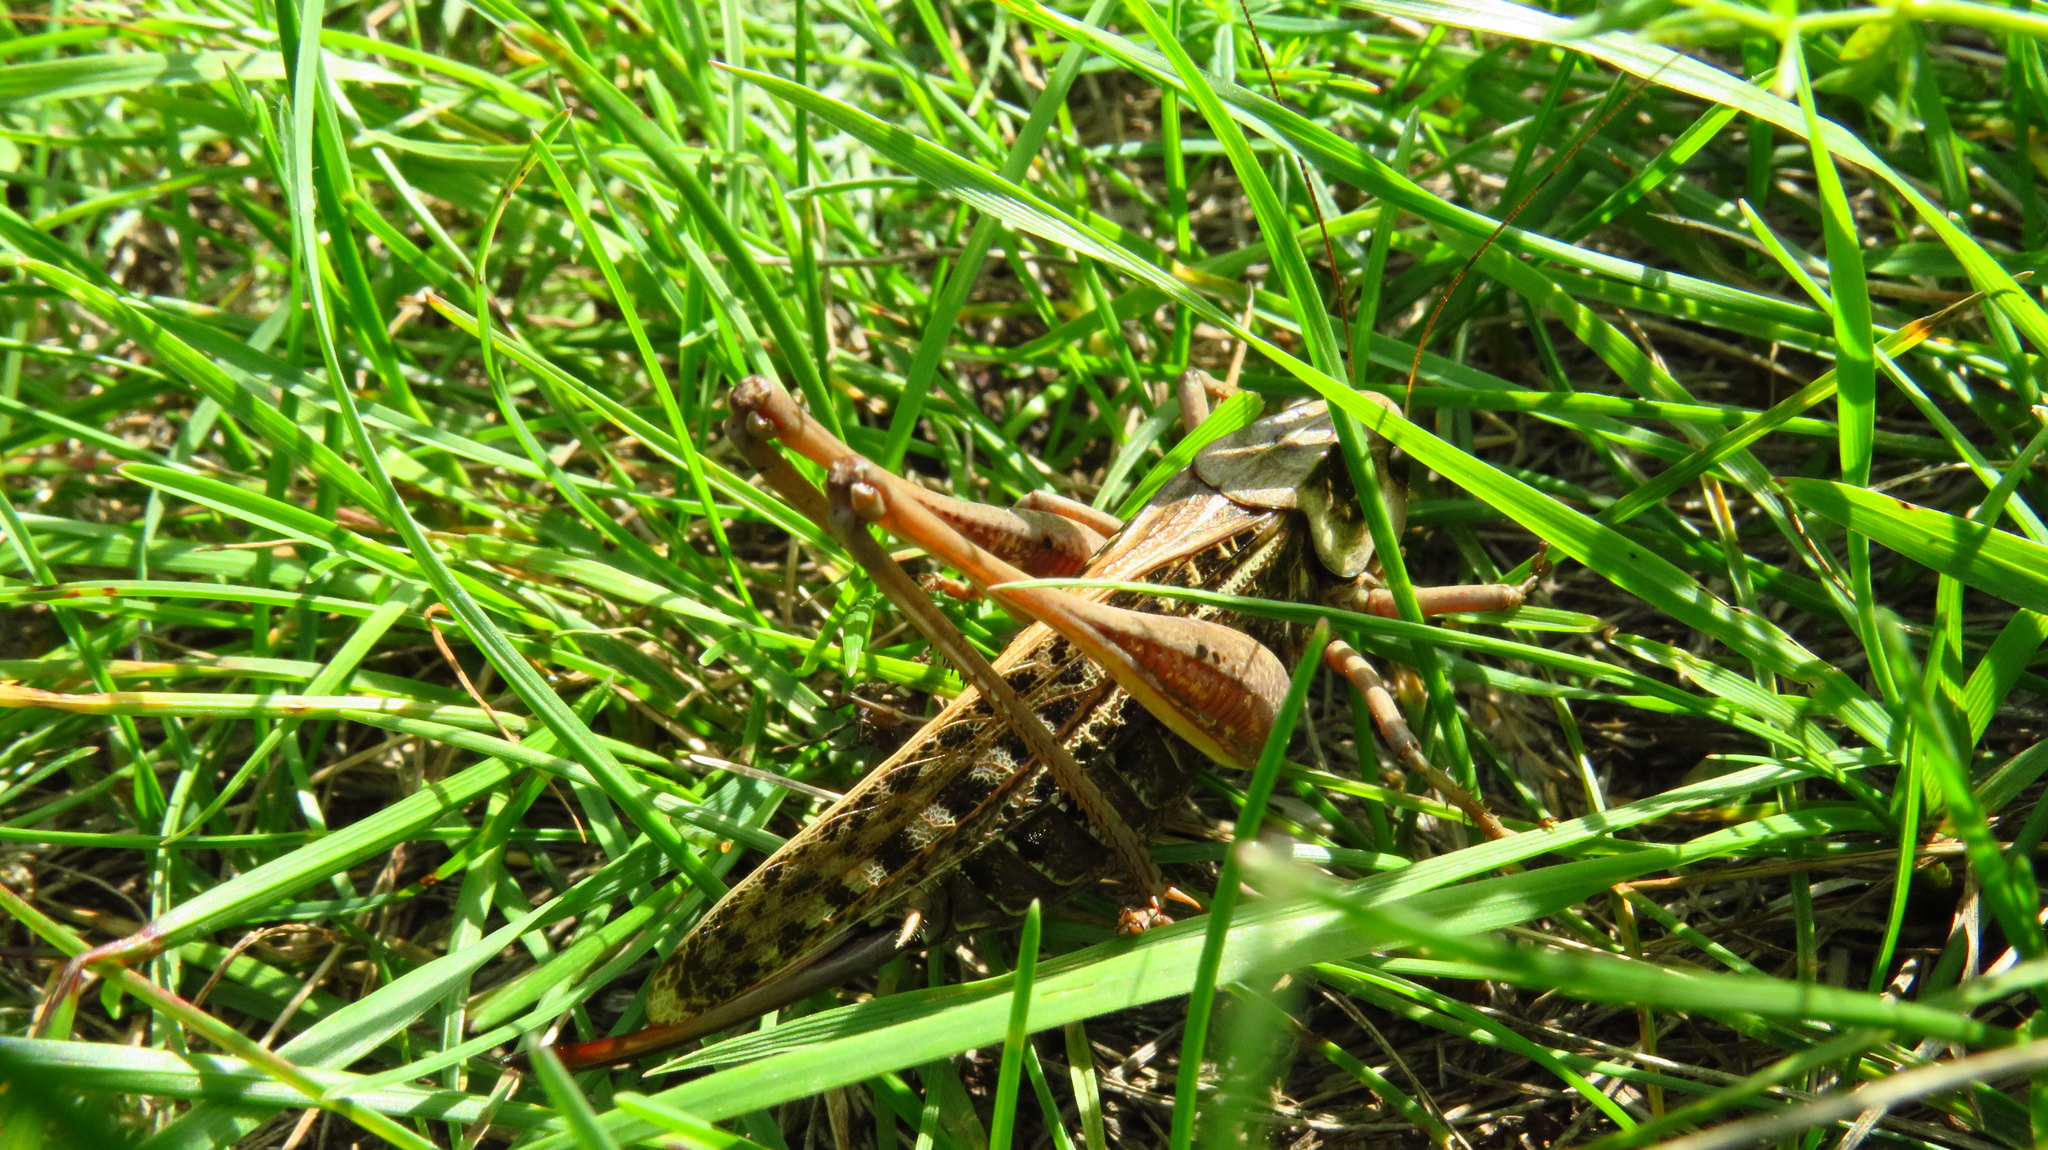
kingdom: Animalia
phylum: Arthropoda
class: Insecta
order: Orthoptera
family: Tettigoniidae
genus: Decticus
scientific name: Decticus verrucivorus
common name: Wart-biter
